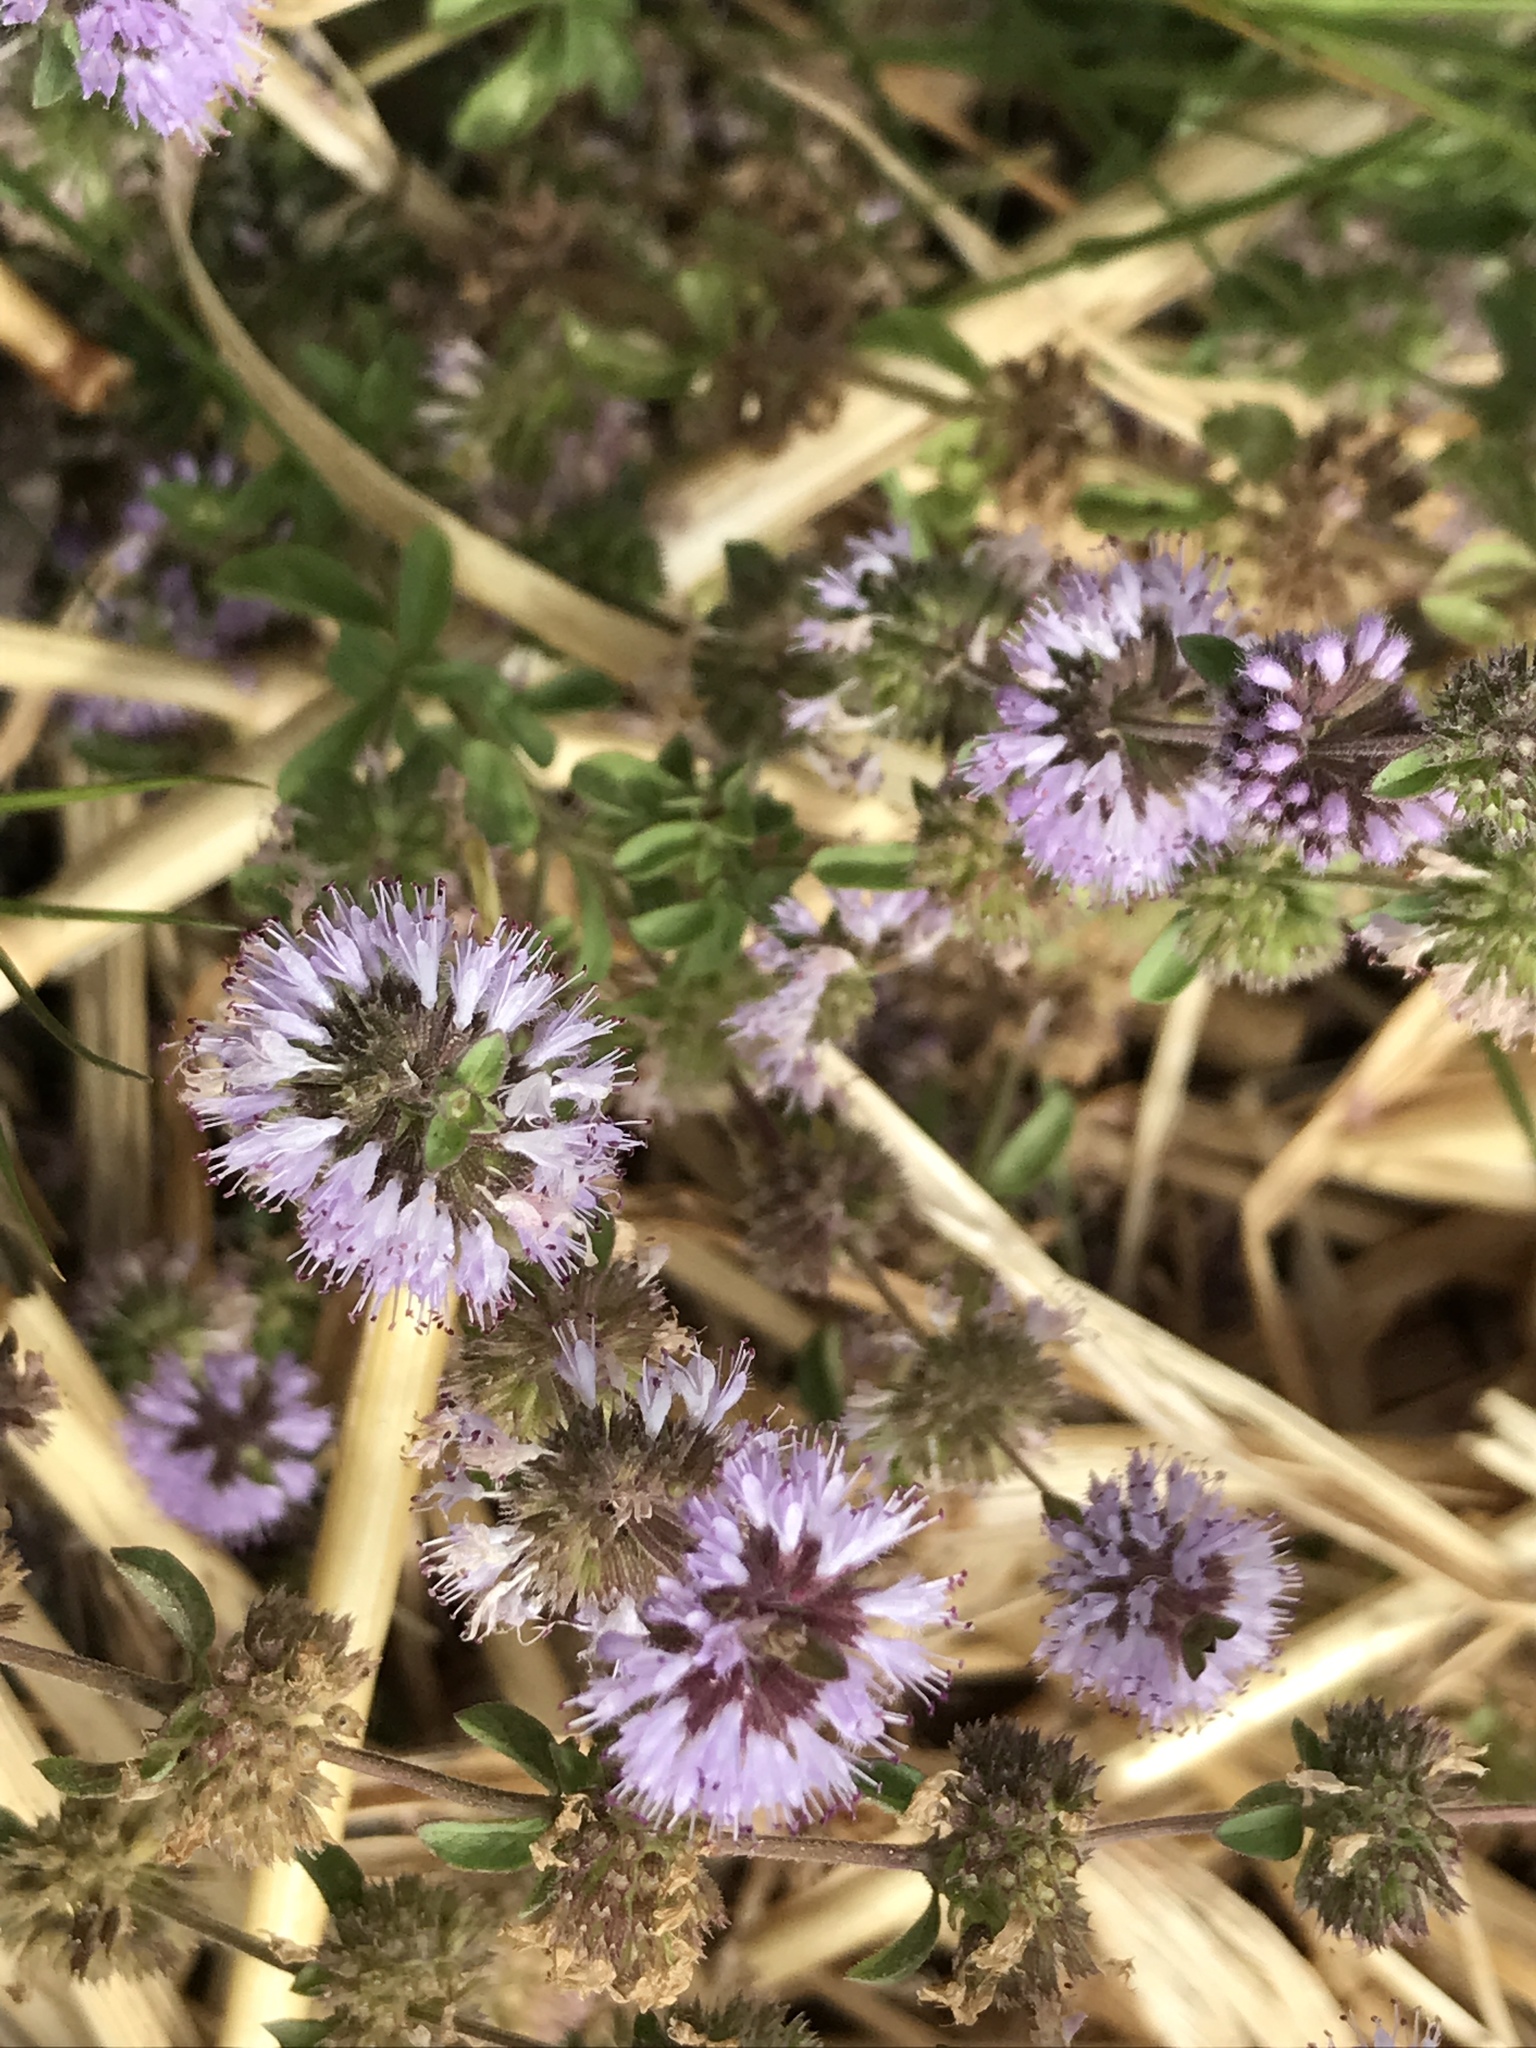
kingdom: Plantae
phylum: Tracheophyta
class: Magnoliopsida
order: Lamiales
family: Lamiaceae
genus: Mentha
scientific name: Mentha pulegium
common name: Pennyroyal
